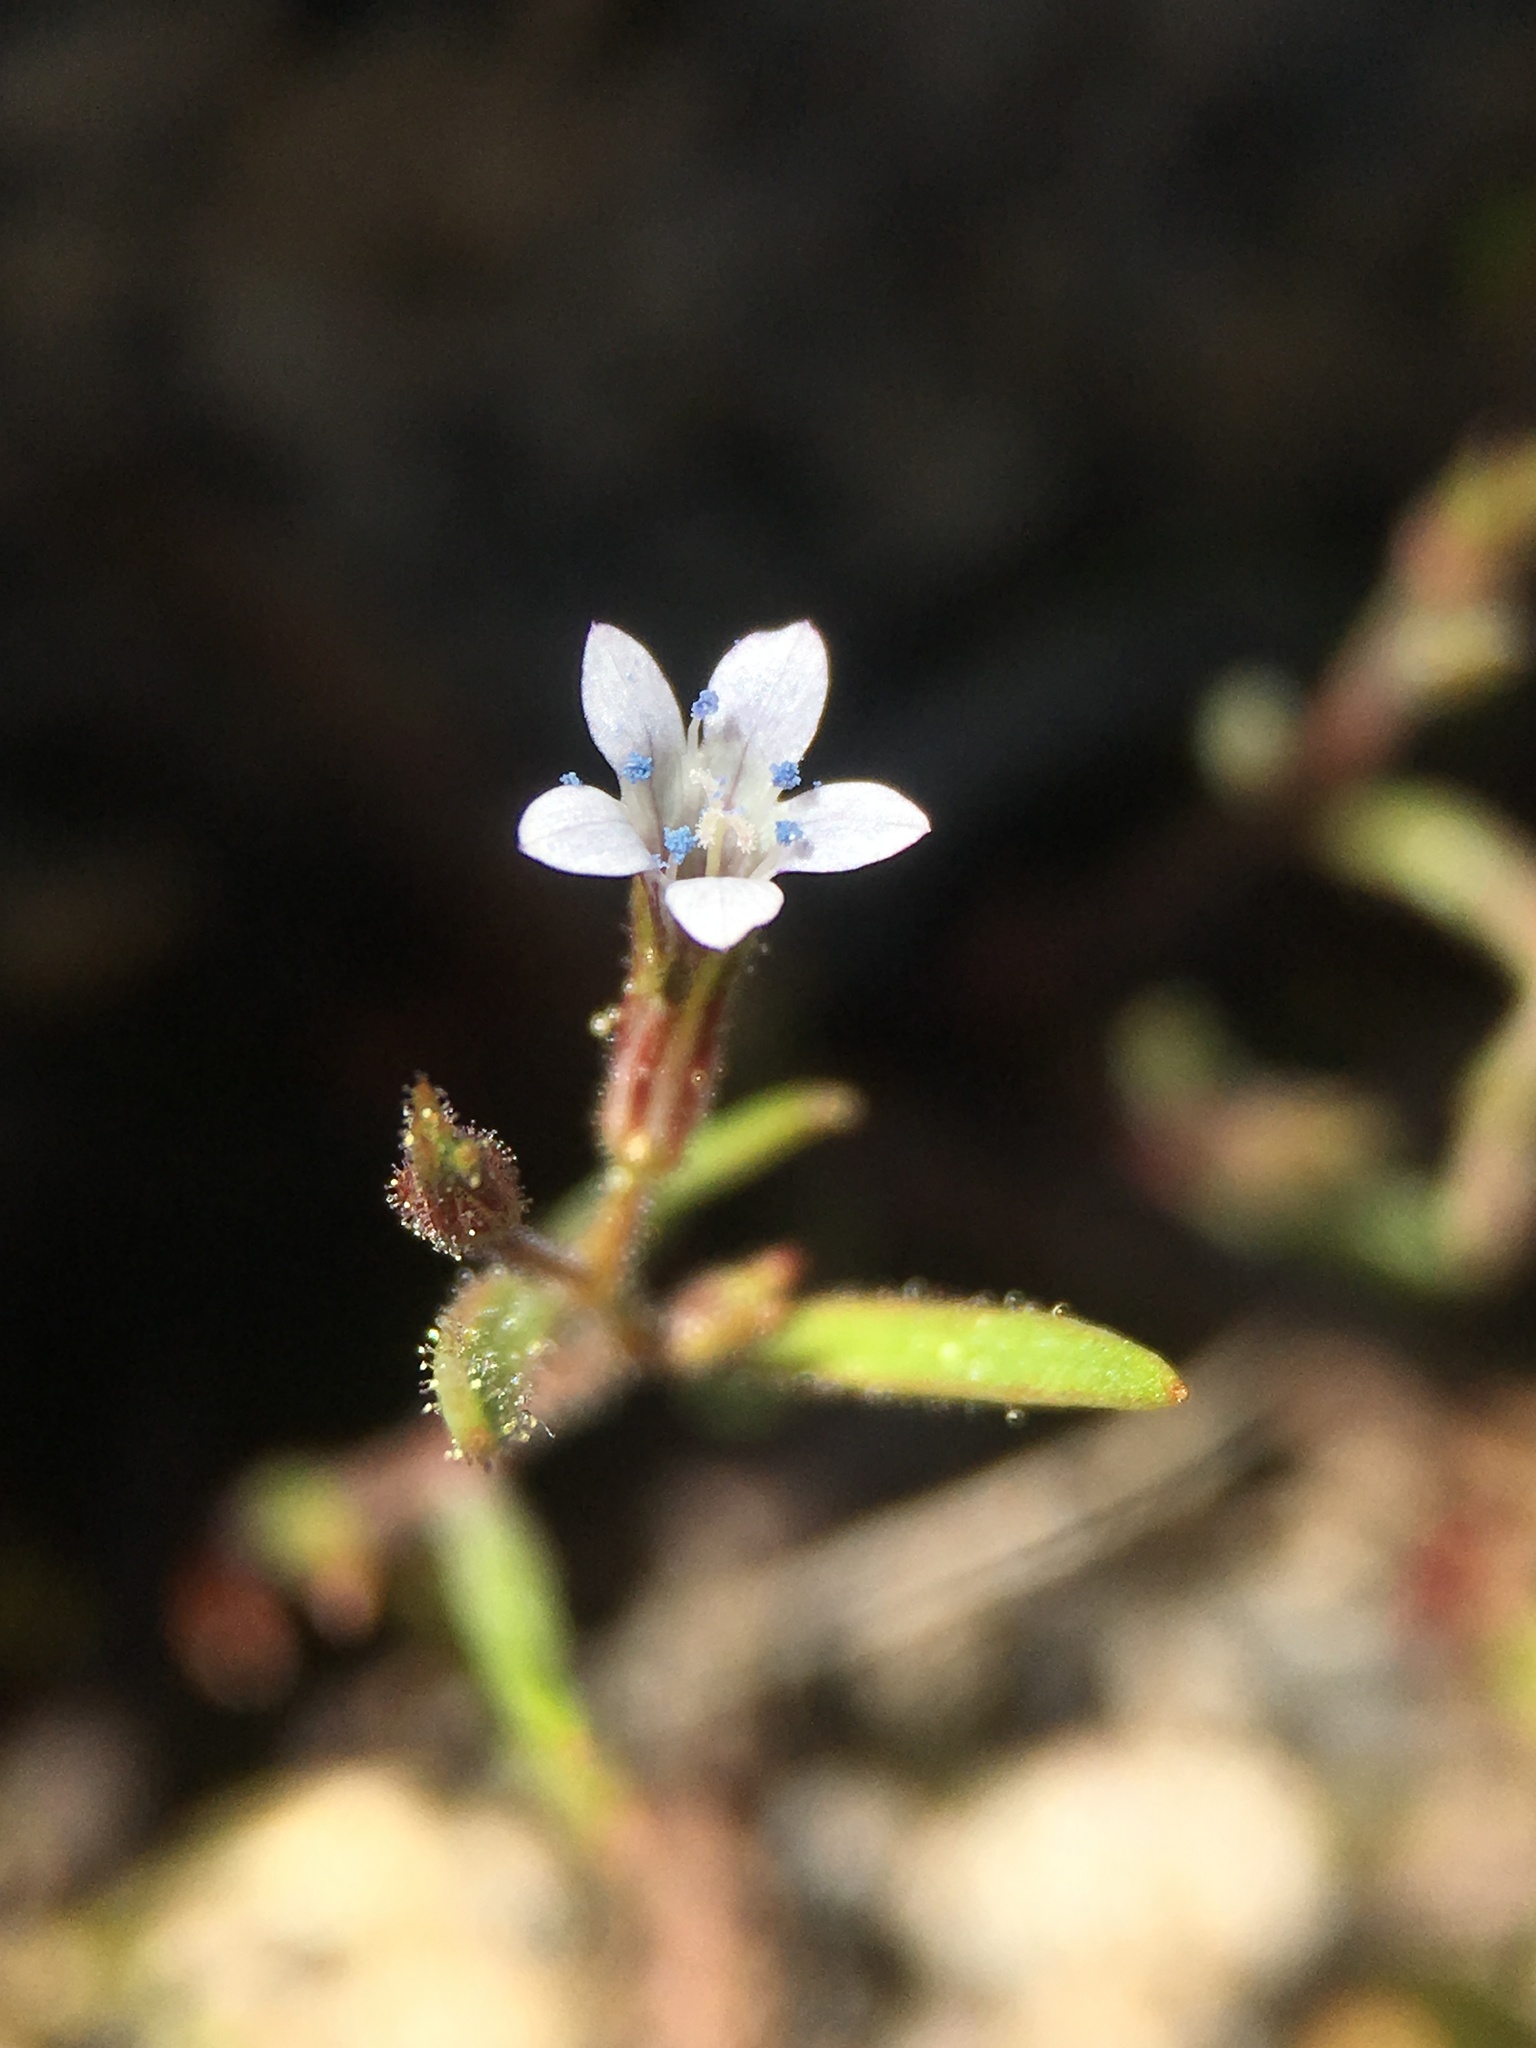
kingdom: Plantae
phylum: Tracheophyta
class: Magnoliopsida
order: Ericales
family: Polemoniaceae
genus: Allophyllum
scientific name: Allophyllum capillare
